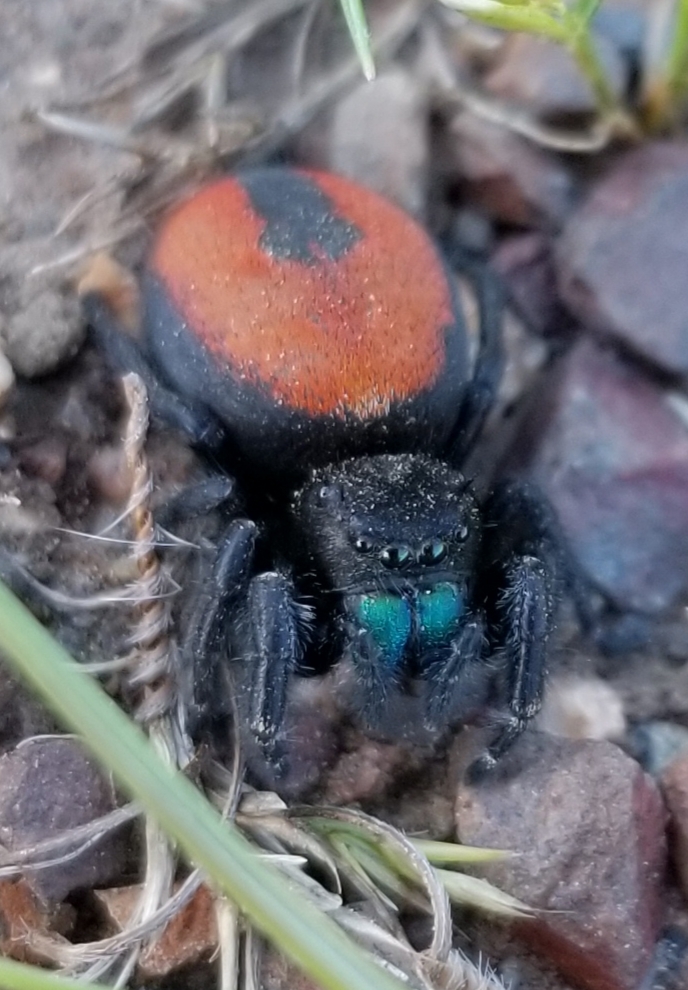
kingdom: Animalia
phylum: Arthropoda
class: Arachnida
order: Araneae
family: Salticidae
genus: Phidippus
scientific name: Phidippus johnsoni
